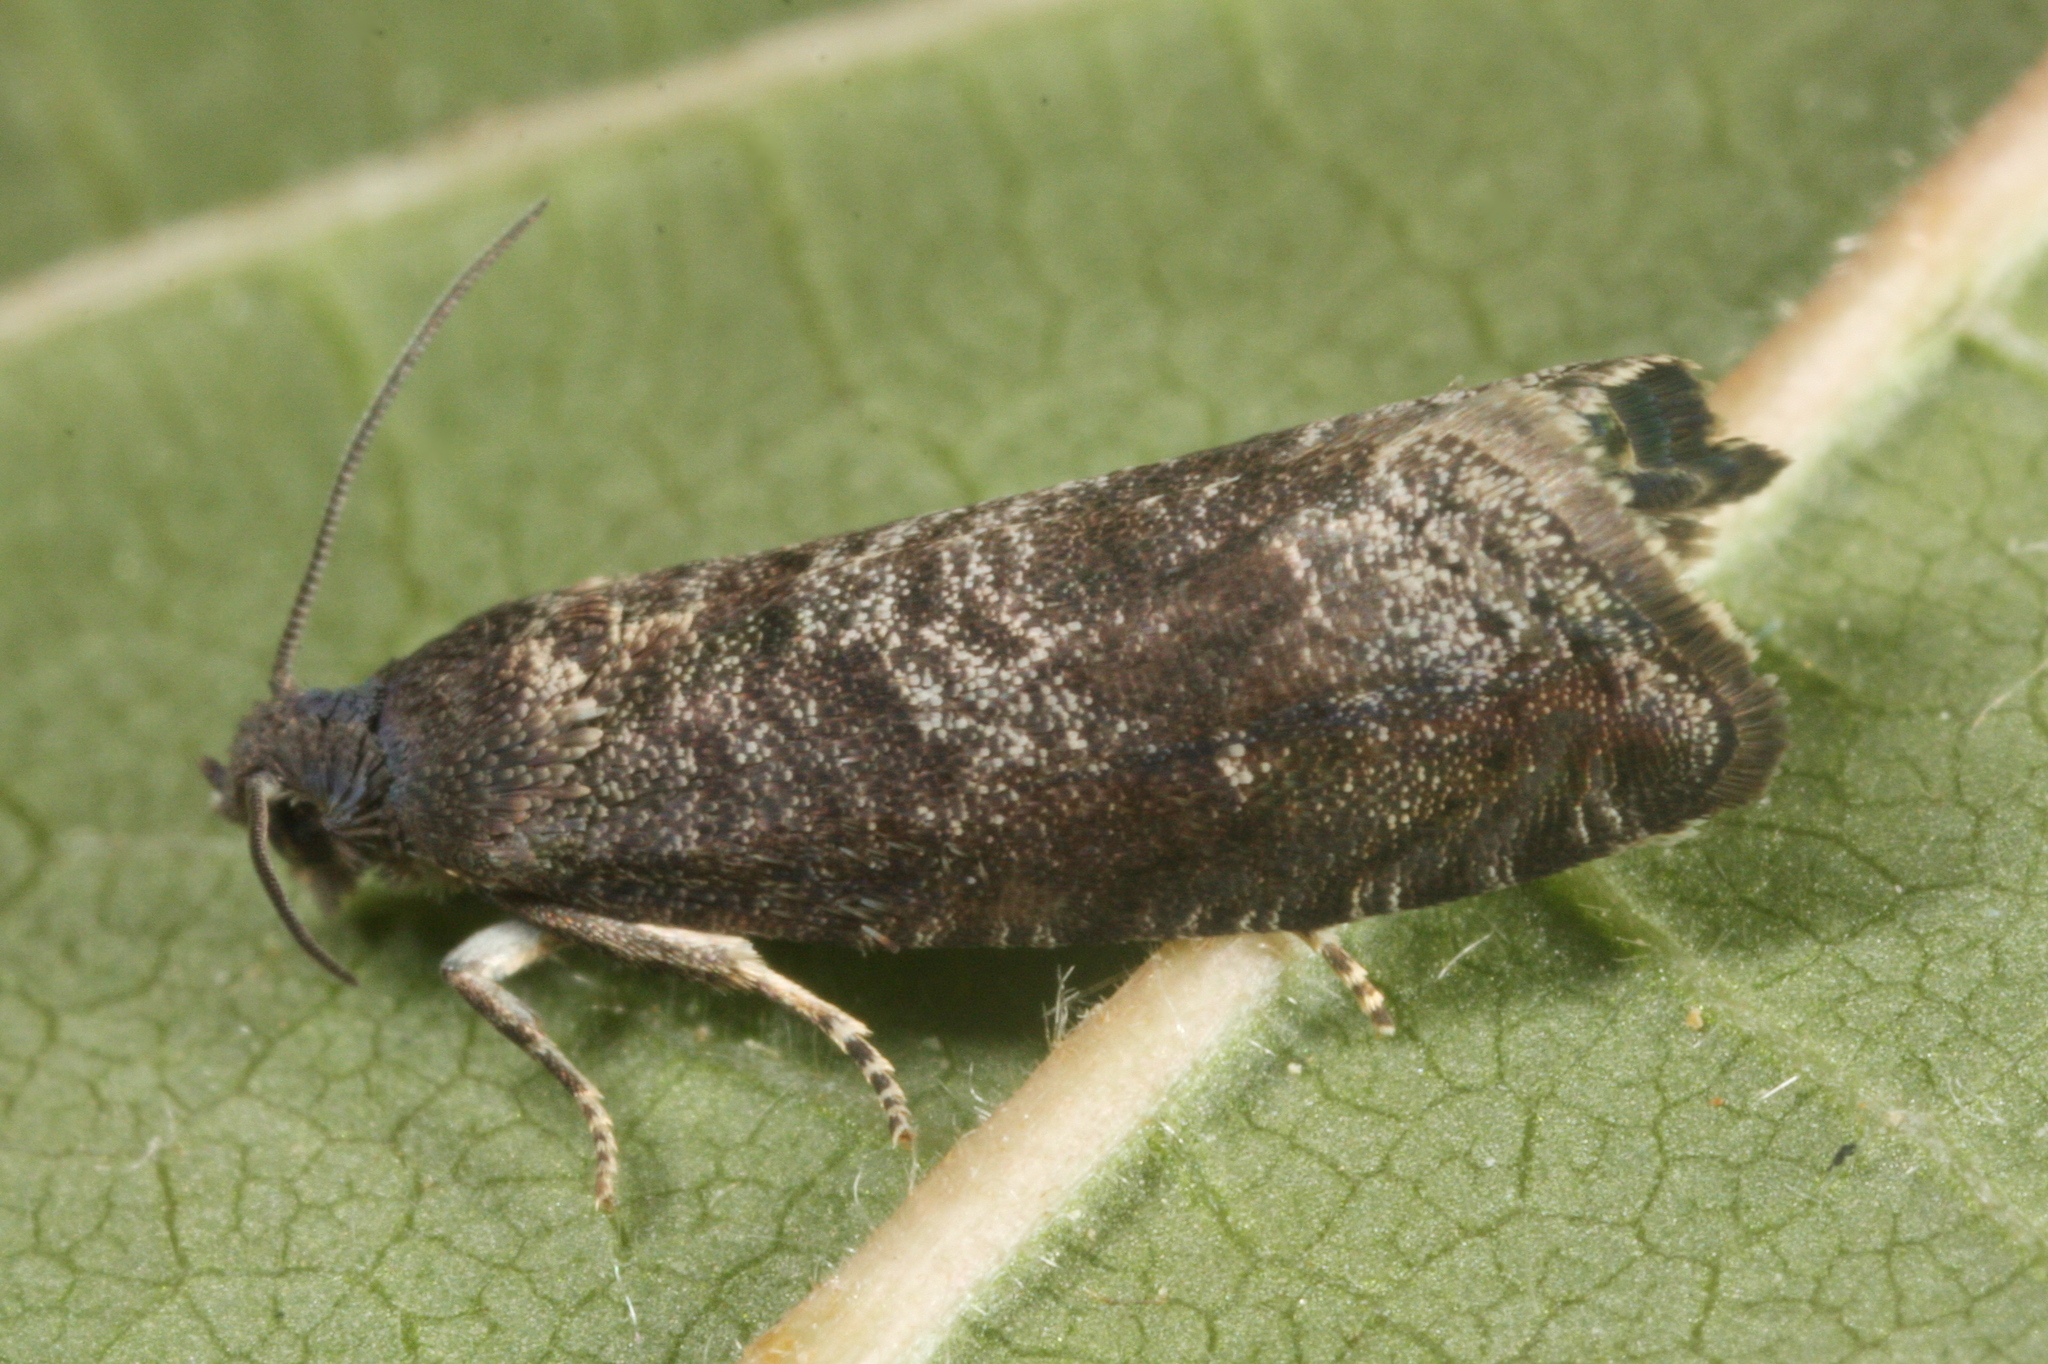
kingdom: Animalia
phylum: Arthropoda
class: Insecta
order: Lepidoptera
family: Noctuidae
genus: Aspila
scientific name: Aspila
